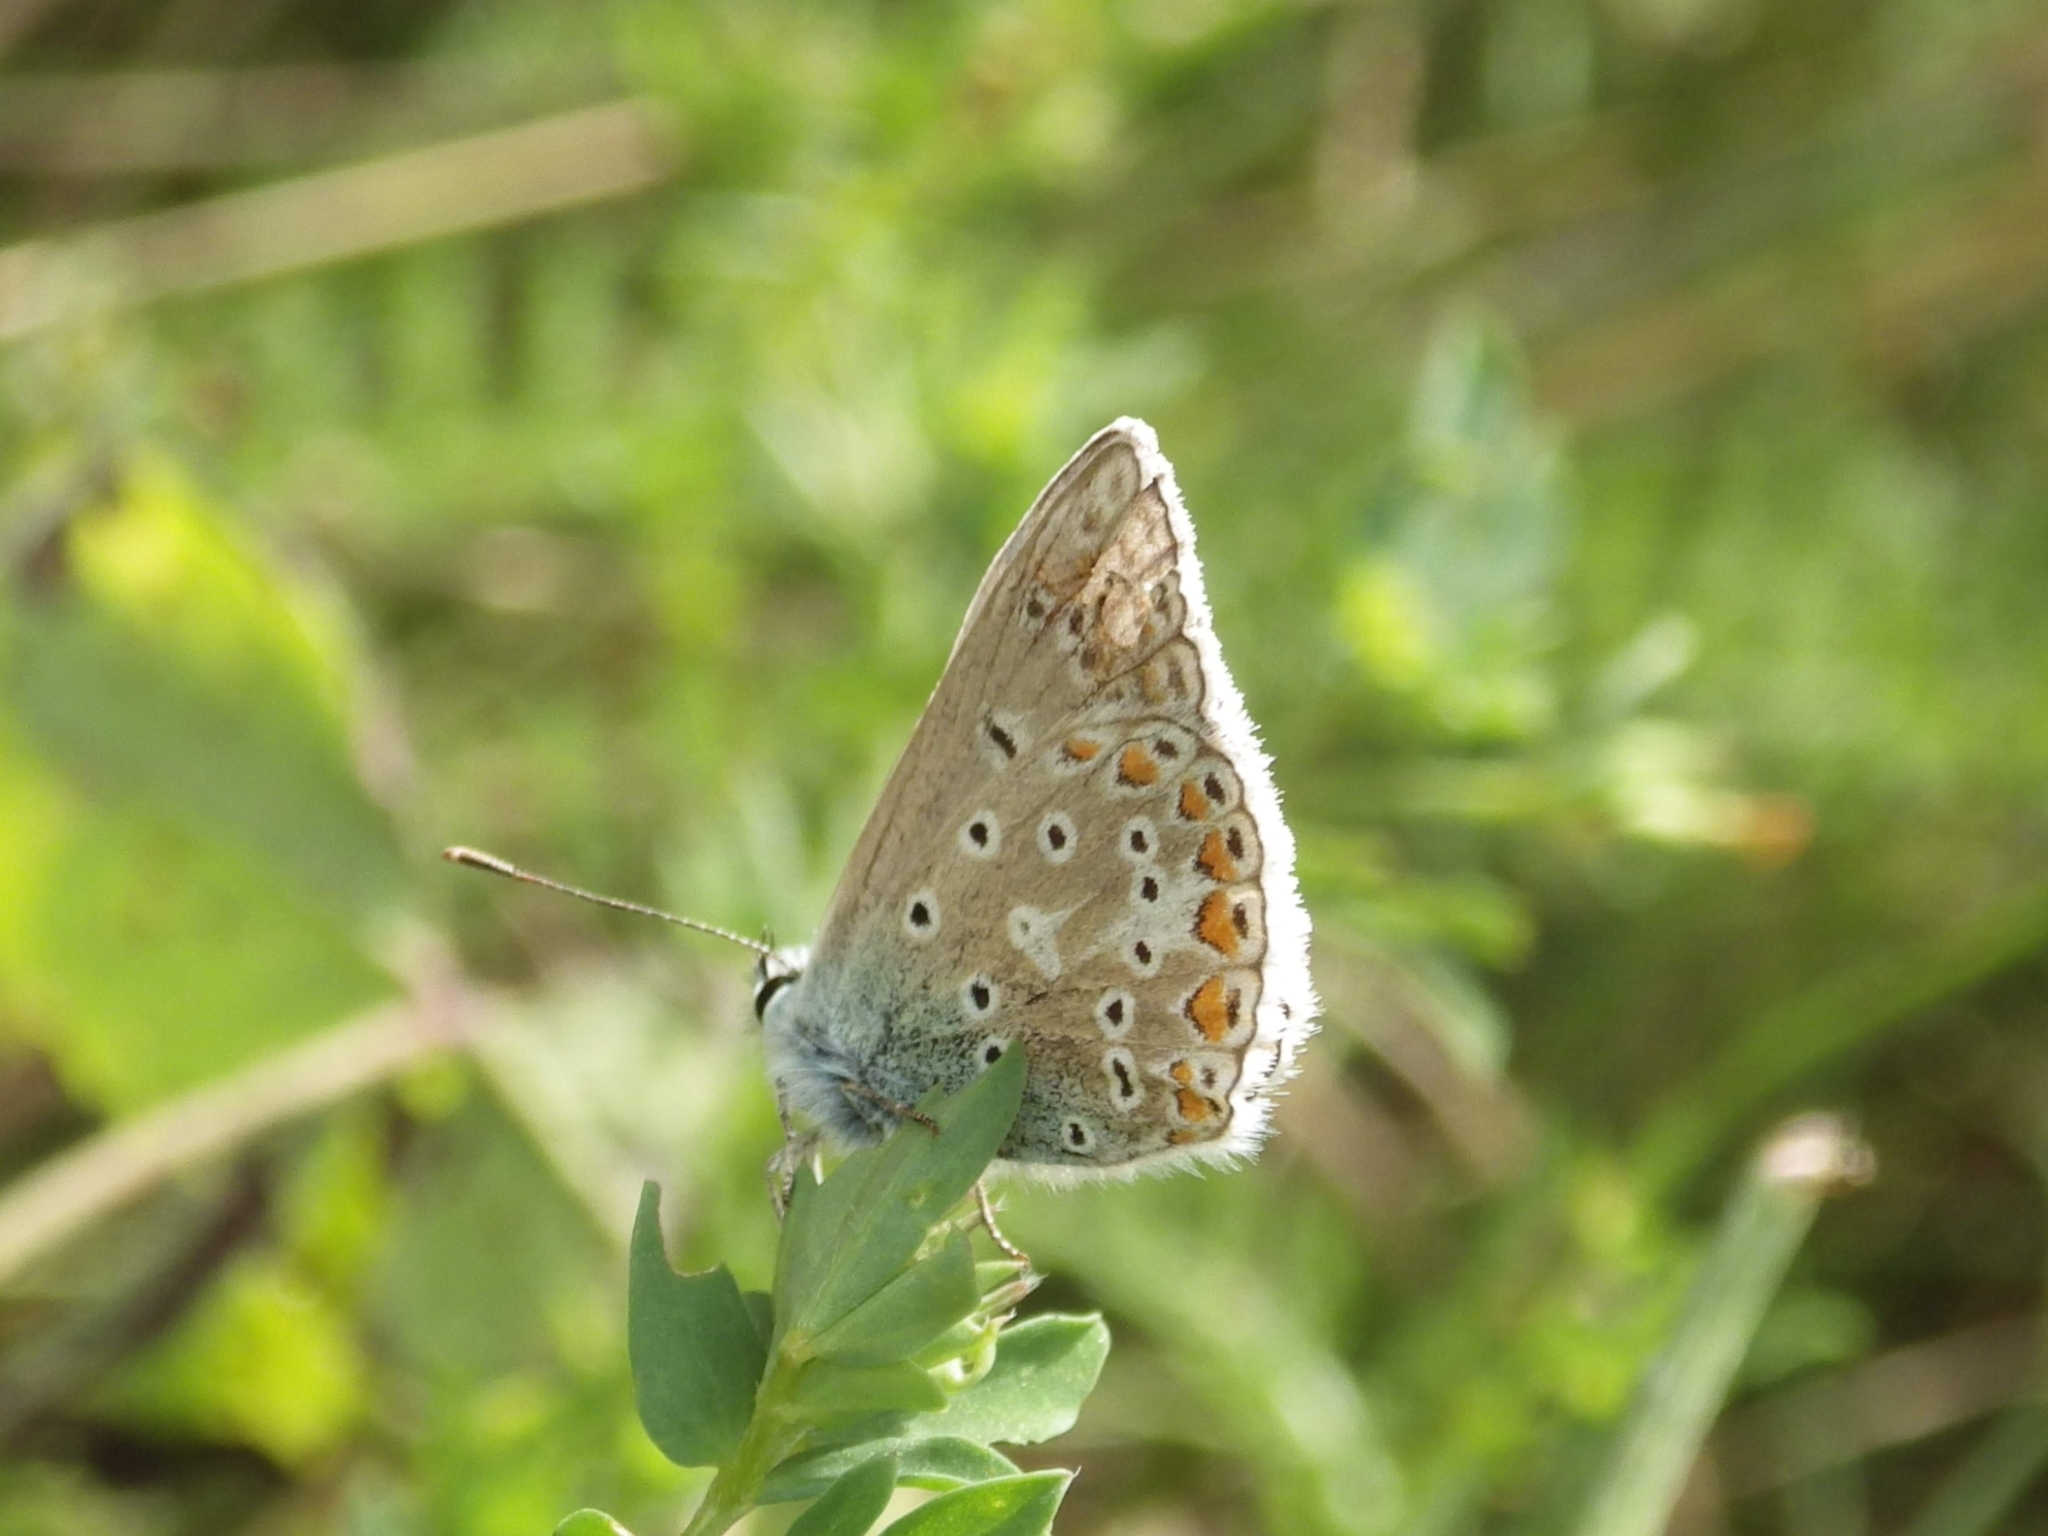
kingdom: Animalia
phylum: Arthropoda
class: Insecta
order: Lepidoptera
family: Lycaenidae
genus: Polyommatus
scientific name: Polyommatus icarus
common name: Common blue
